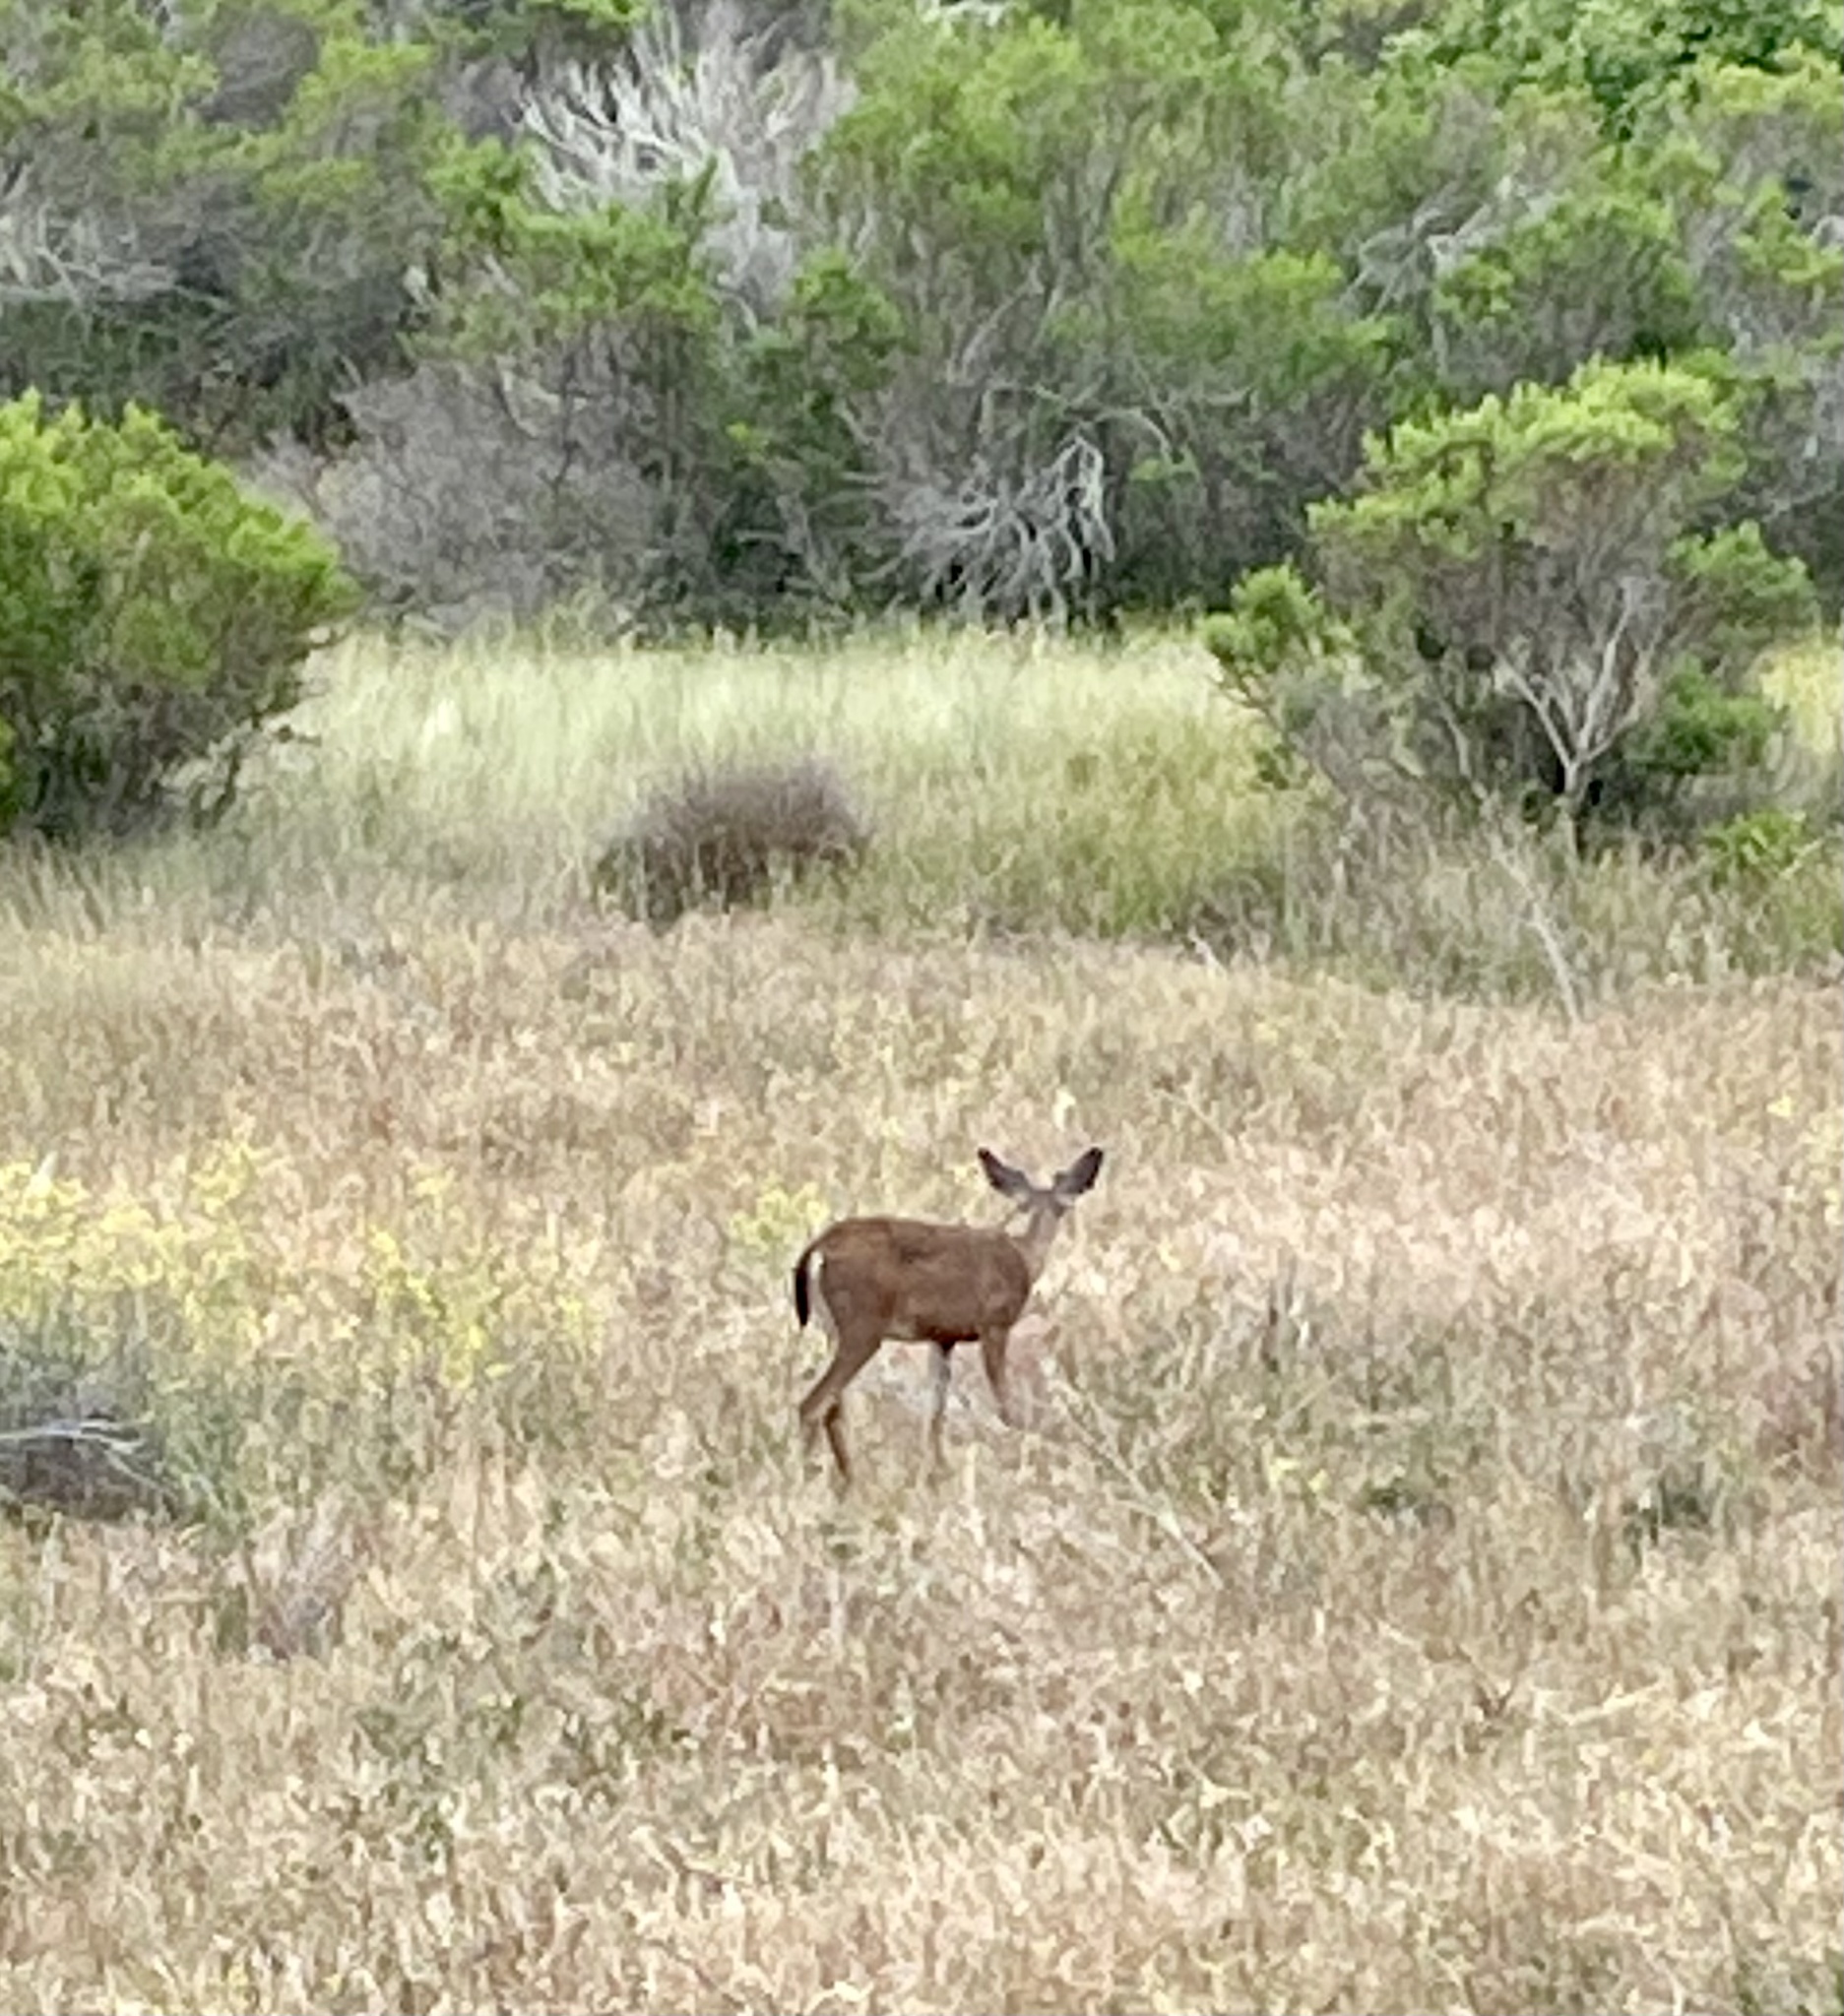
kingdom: Animalia
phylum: Chordata
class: Mammalia
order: Artiodactyla
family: Cervidae
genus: Odocoileus
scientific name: Odocoileus hemionus
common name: Mule deer
